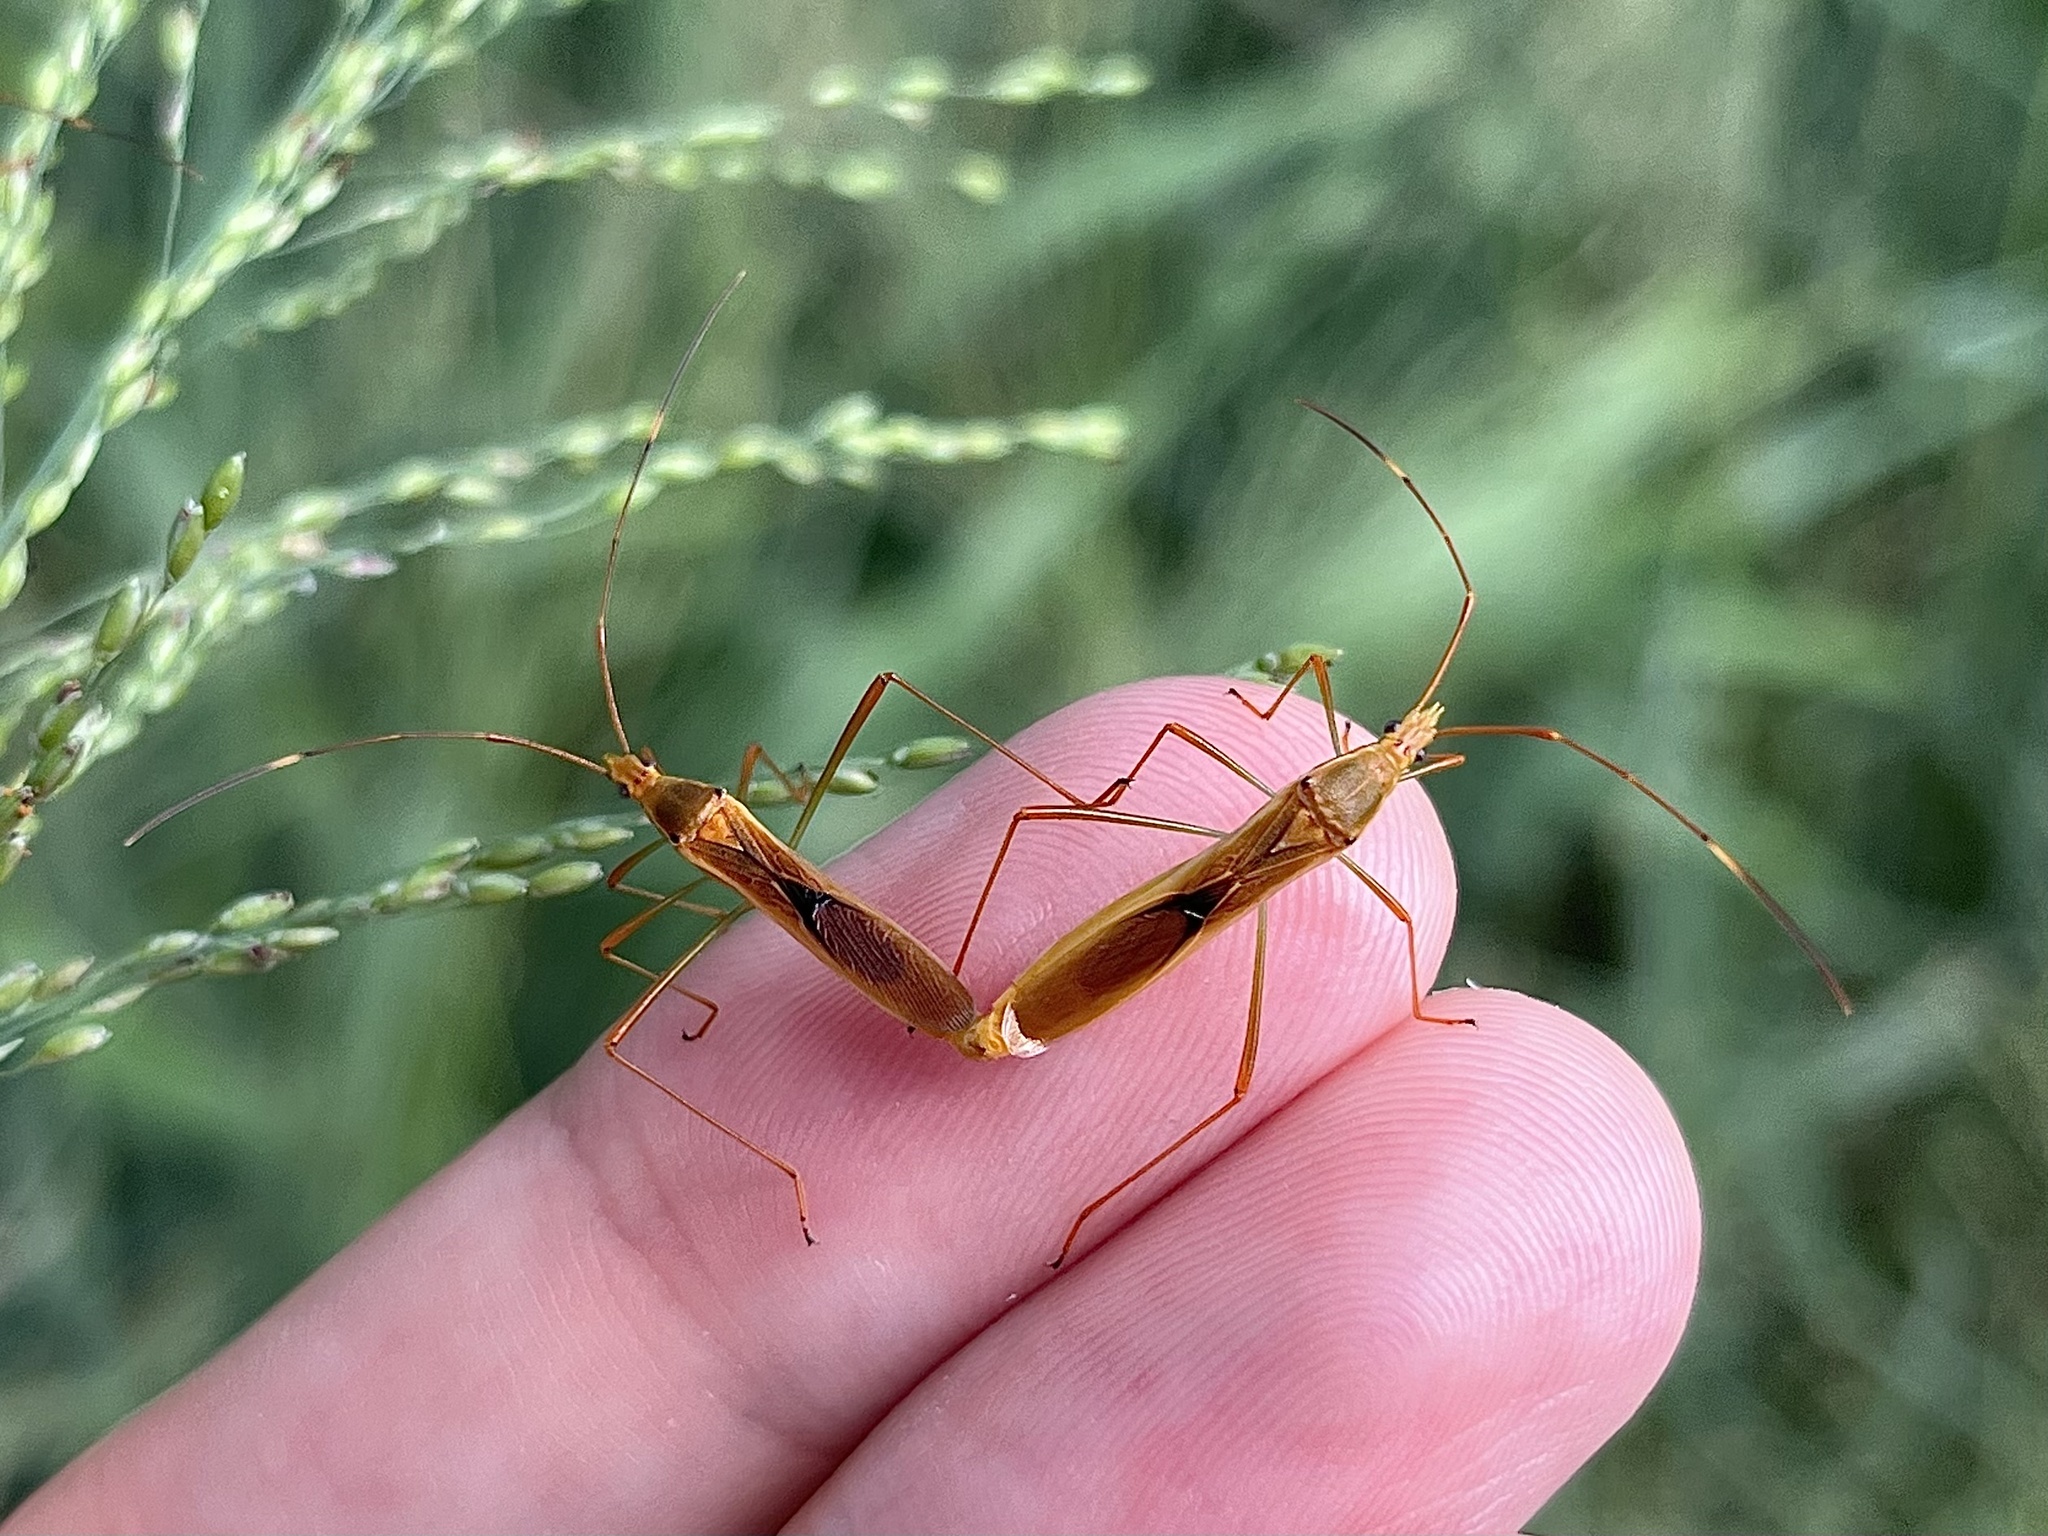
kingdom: Animalia
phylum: Arthropoda
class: Insecta
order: Hemiptera
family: Alydidae
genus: Leptocorisa
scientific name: Leptocorisa acuta
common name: Gandhi bug
